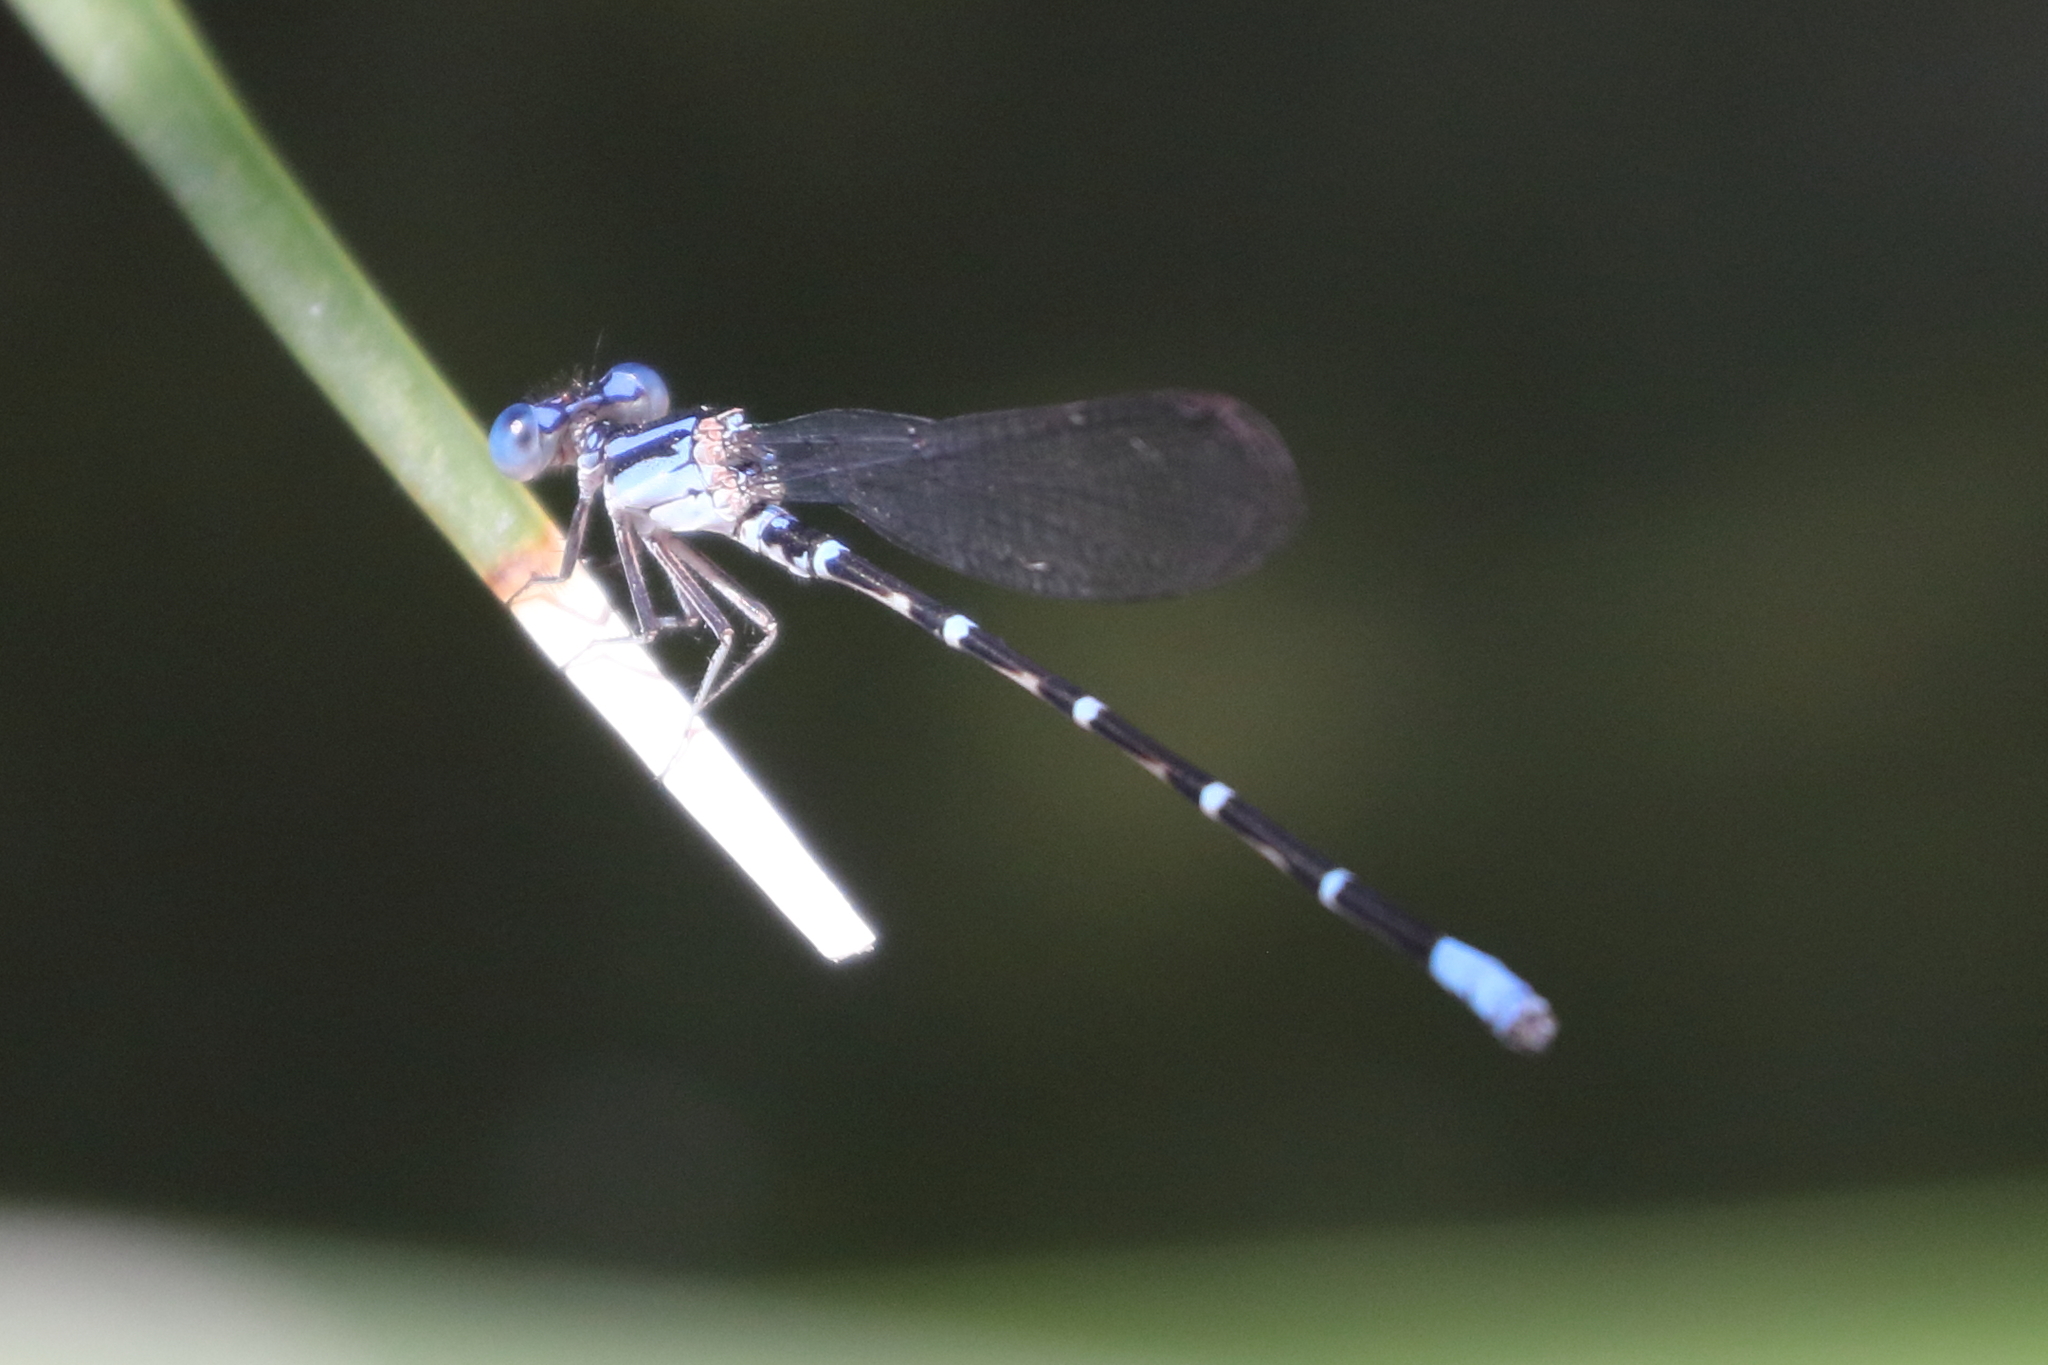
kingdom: Animalia
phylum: Arthropoda
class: Insecta
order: Odonata
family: Coenagrionidae
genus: Argia
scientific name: Argia sedula
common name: Blue-ringed dancer
